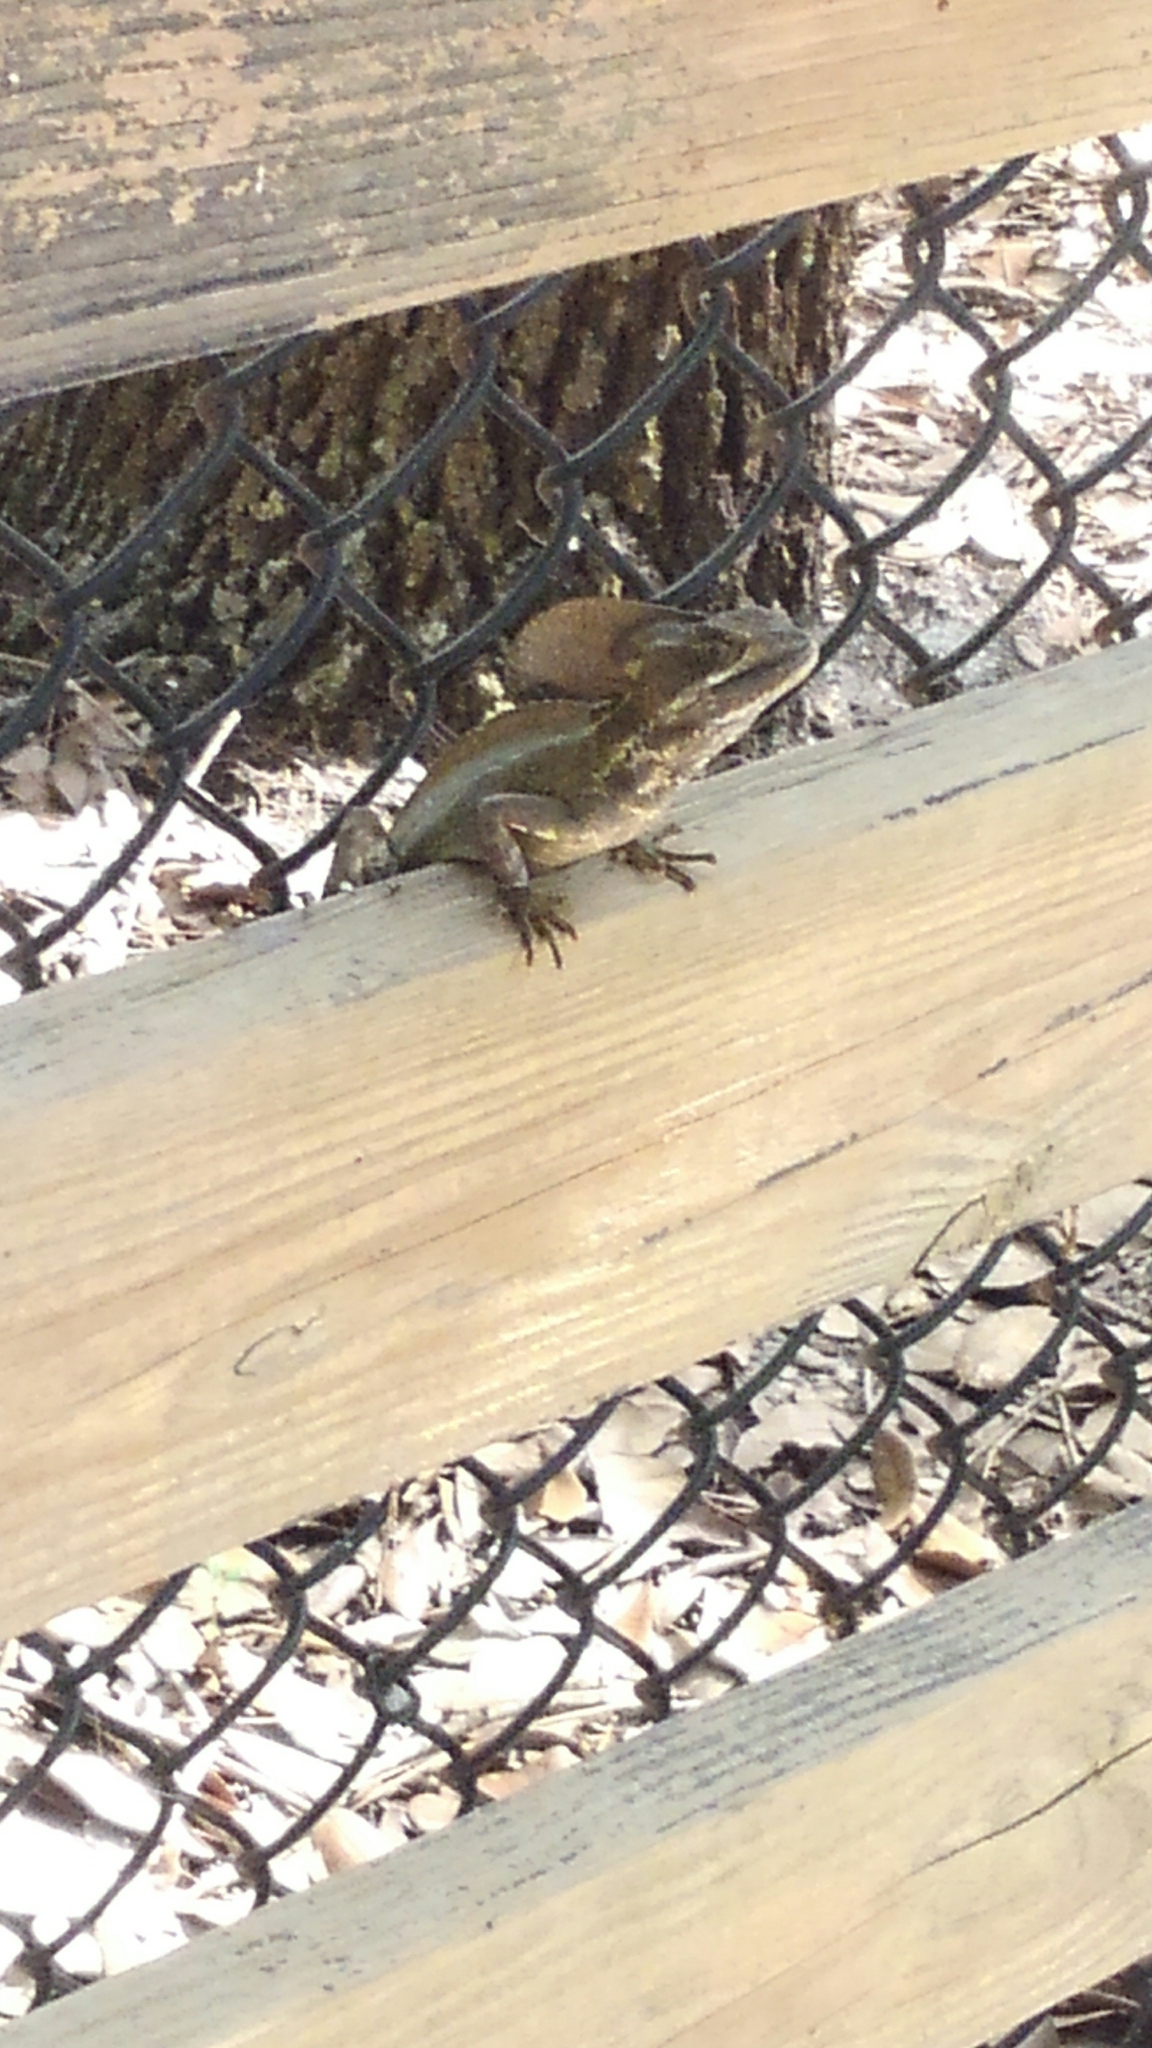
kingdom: Animalia
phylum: Chordata
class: Squamata
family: Corytophanidae
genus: Basiliscus
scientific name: Basiliscus vittatus
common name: Brown basilisk
